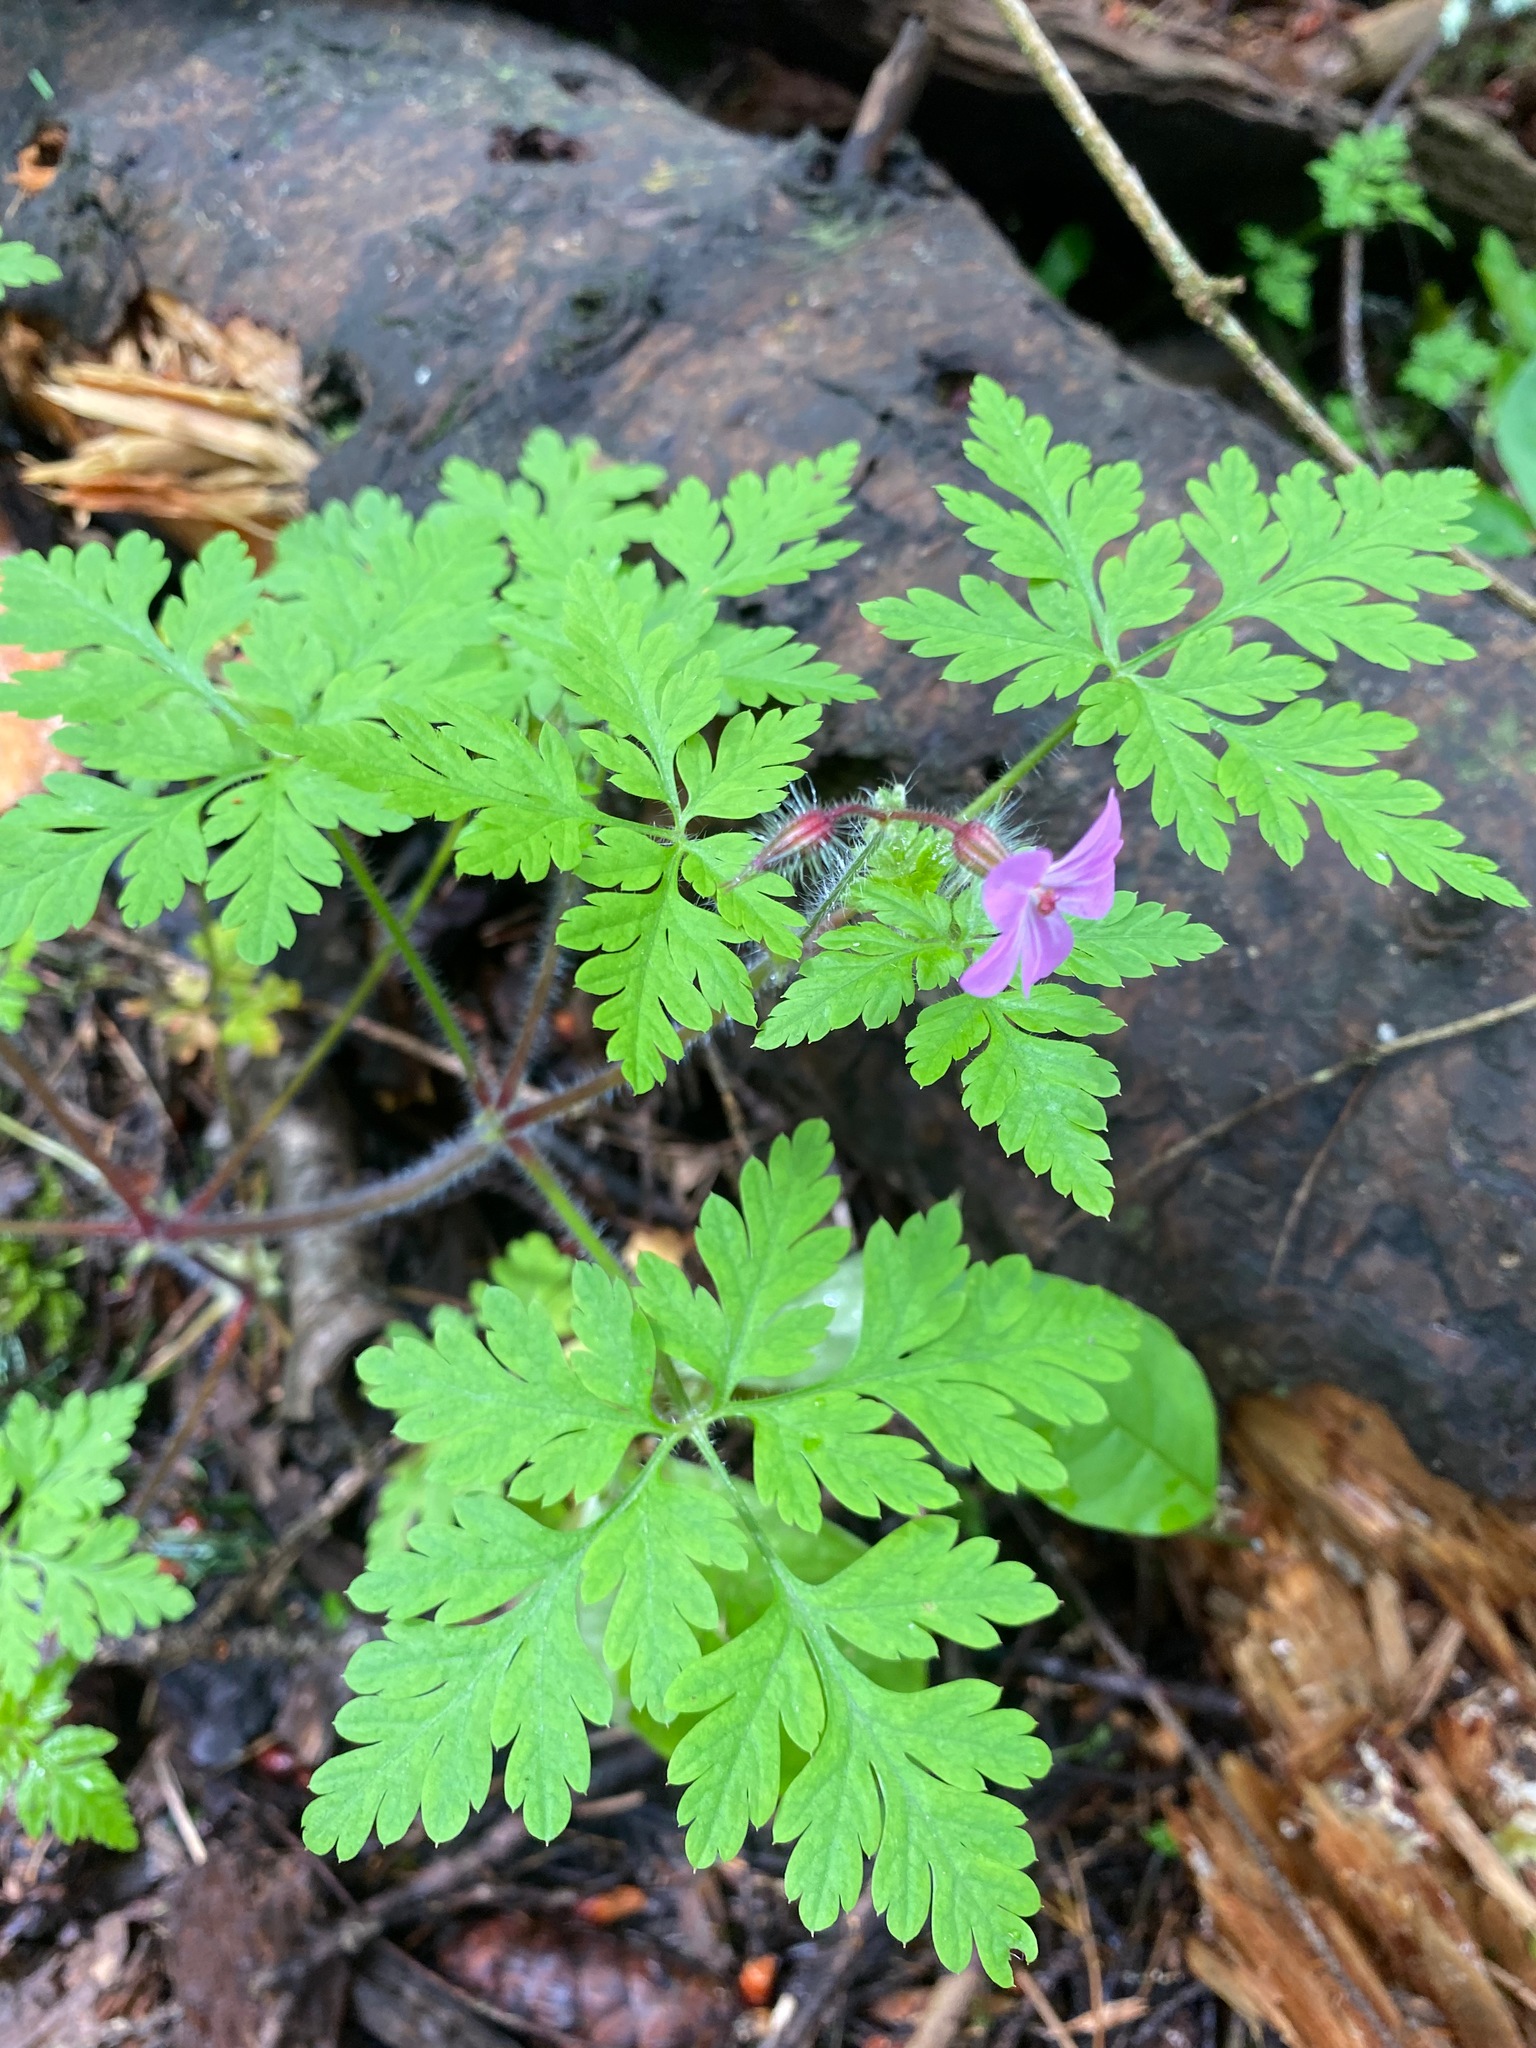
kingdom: Plantae
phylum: Tracheophyta
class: Magnoliopsida
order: Geraniales
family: Geraniaceae
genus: Geranium
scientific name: Geranium robertianum
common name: Herb-robert
